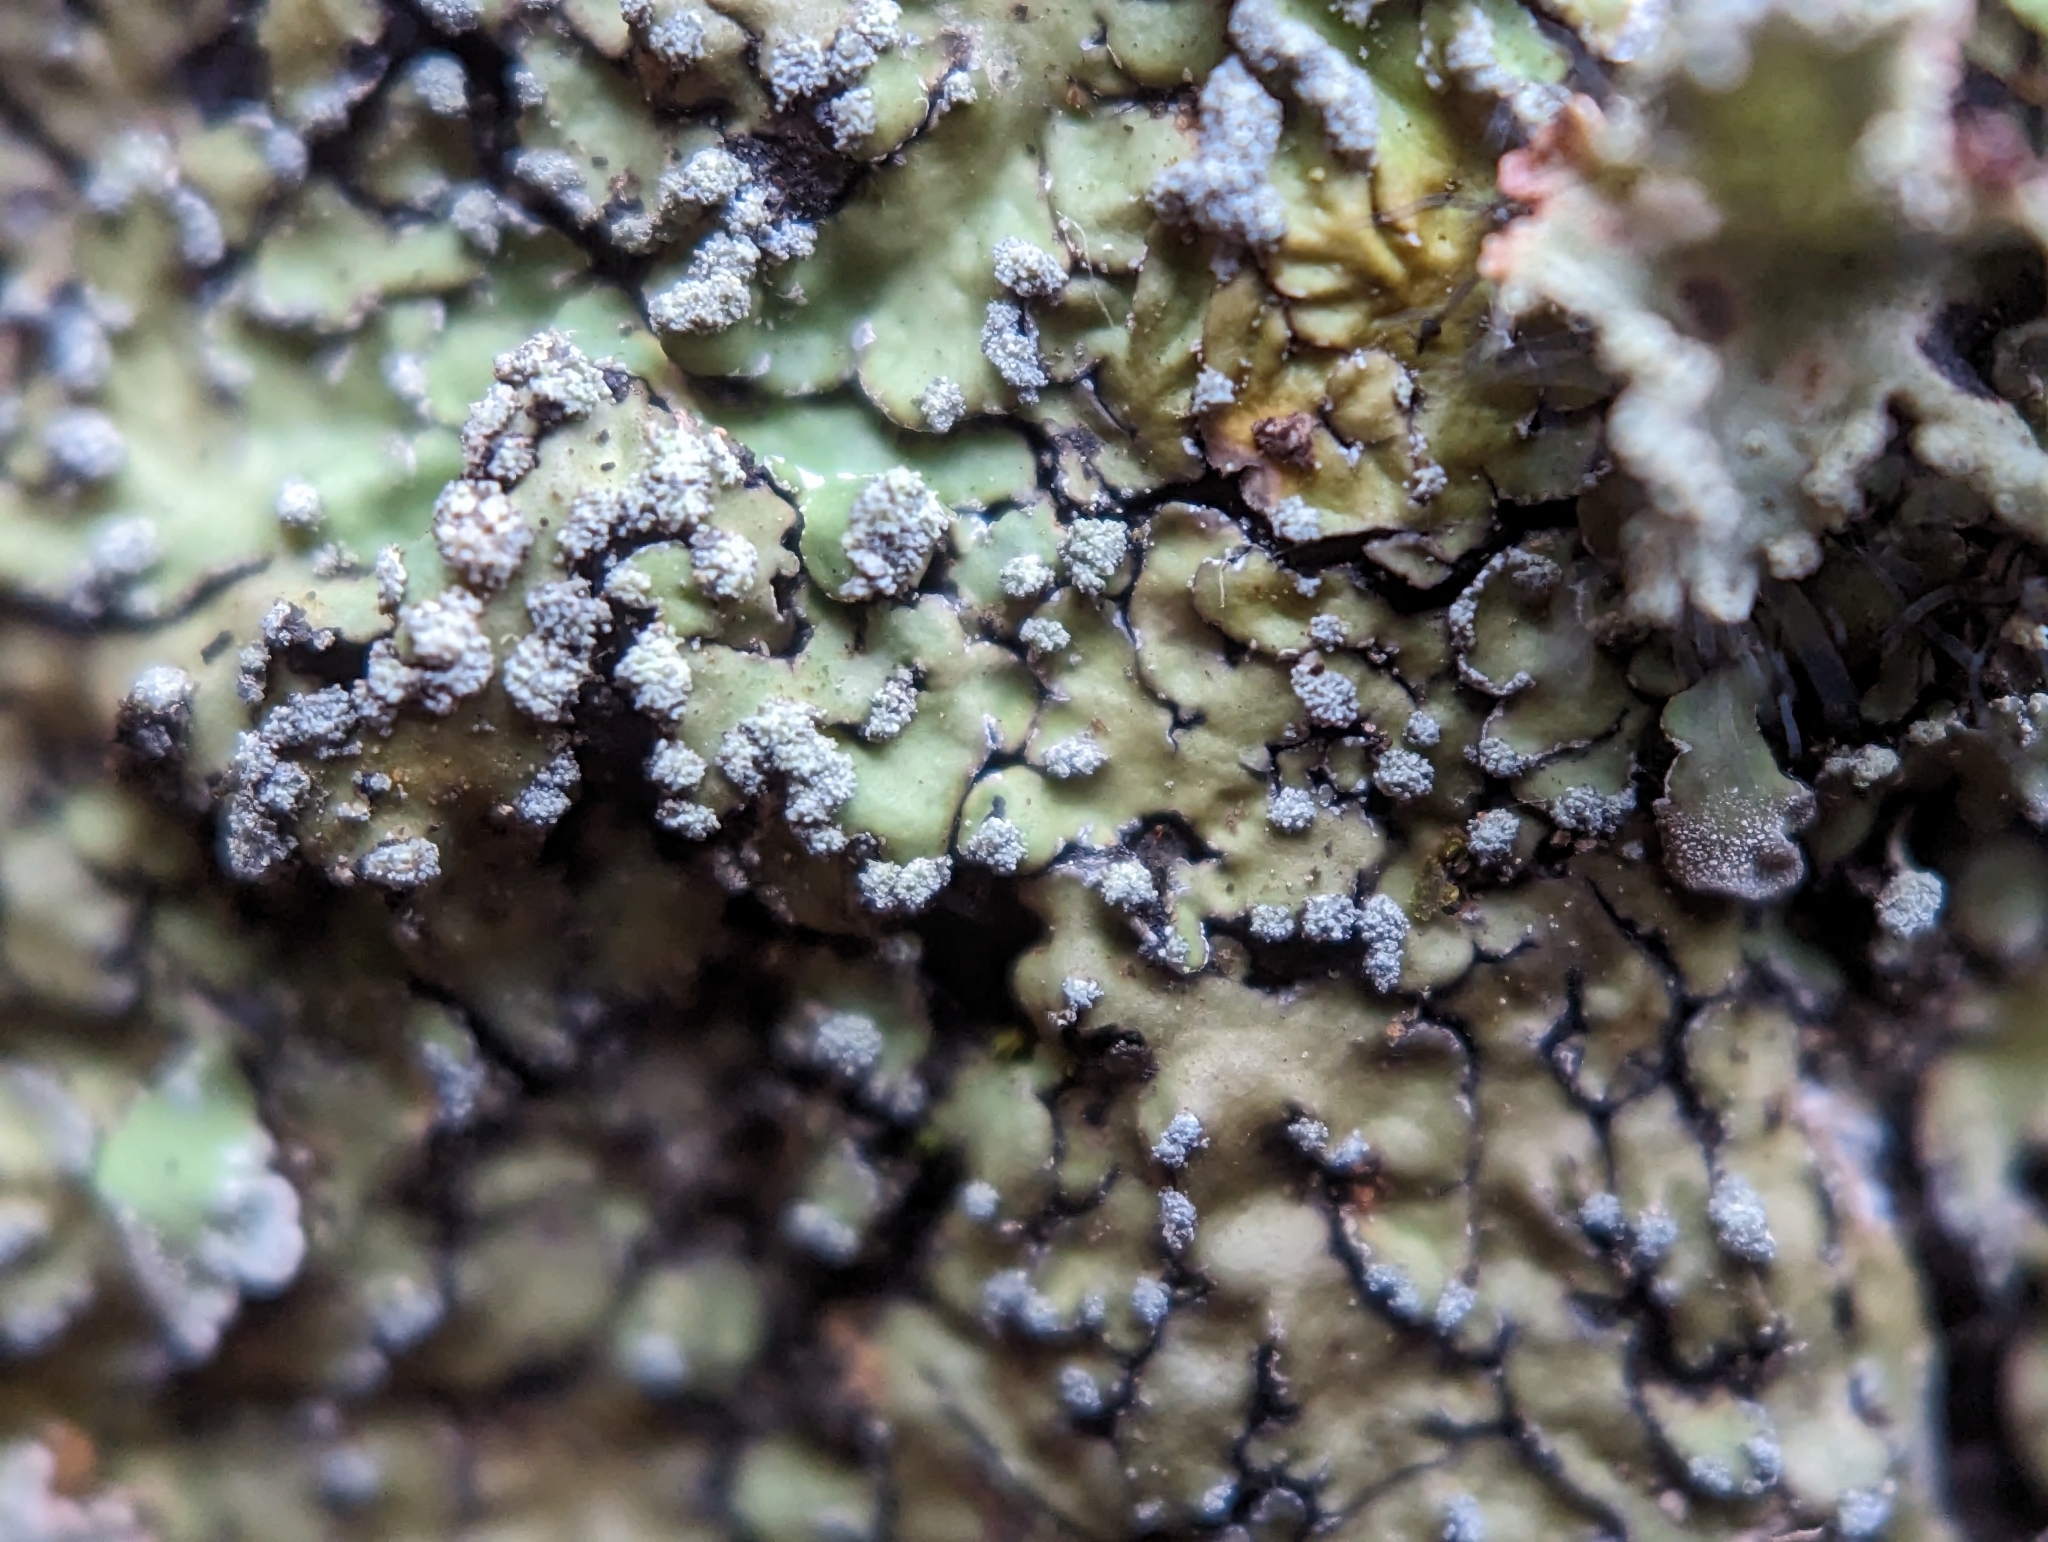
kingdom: Fungi
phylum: Ascomycota
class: Lecanoromycetes
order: Caliciales
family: Caliciaceae
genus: Pyxine
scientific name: Pyxine sorediata
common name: Mustard lichen
